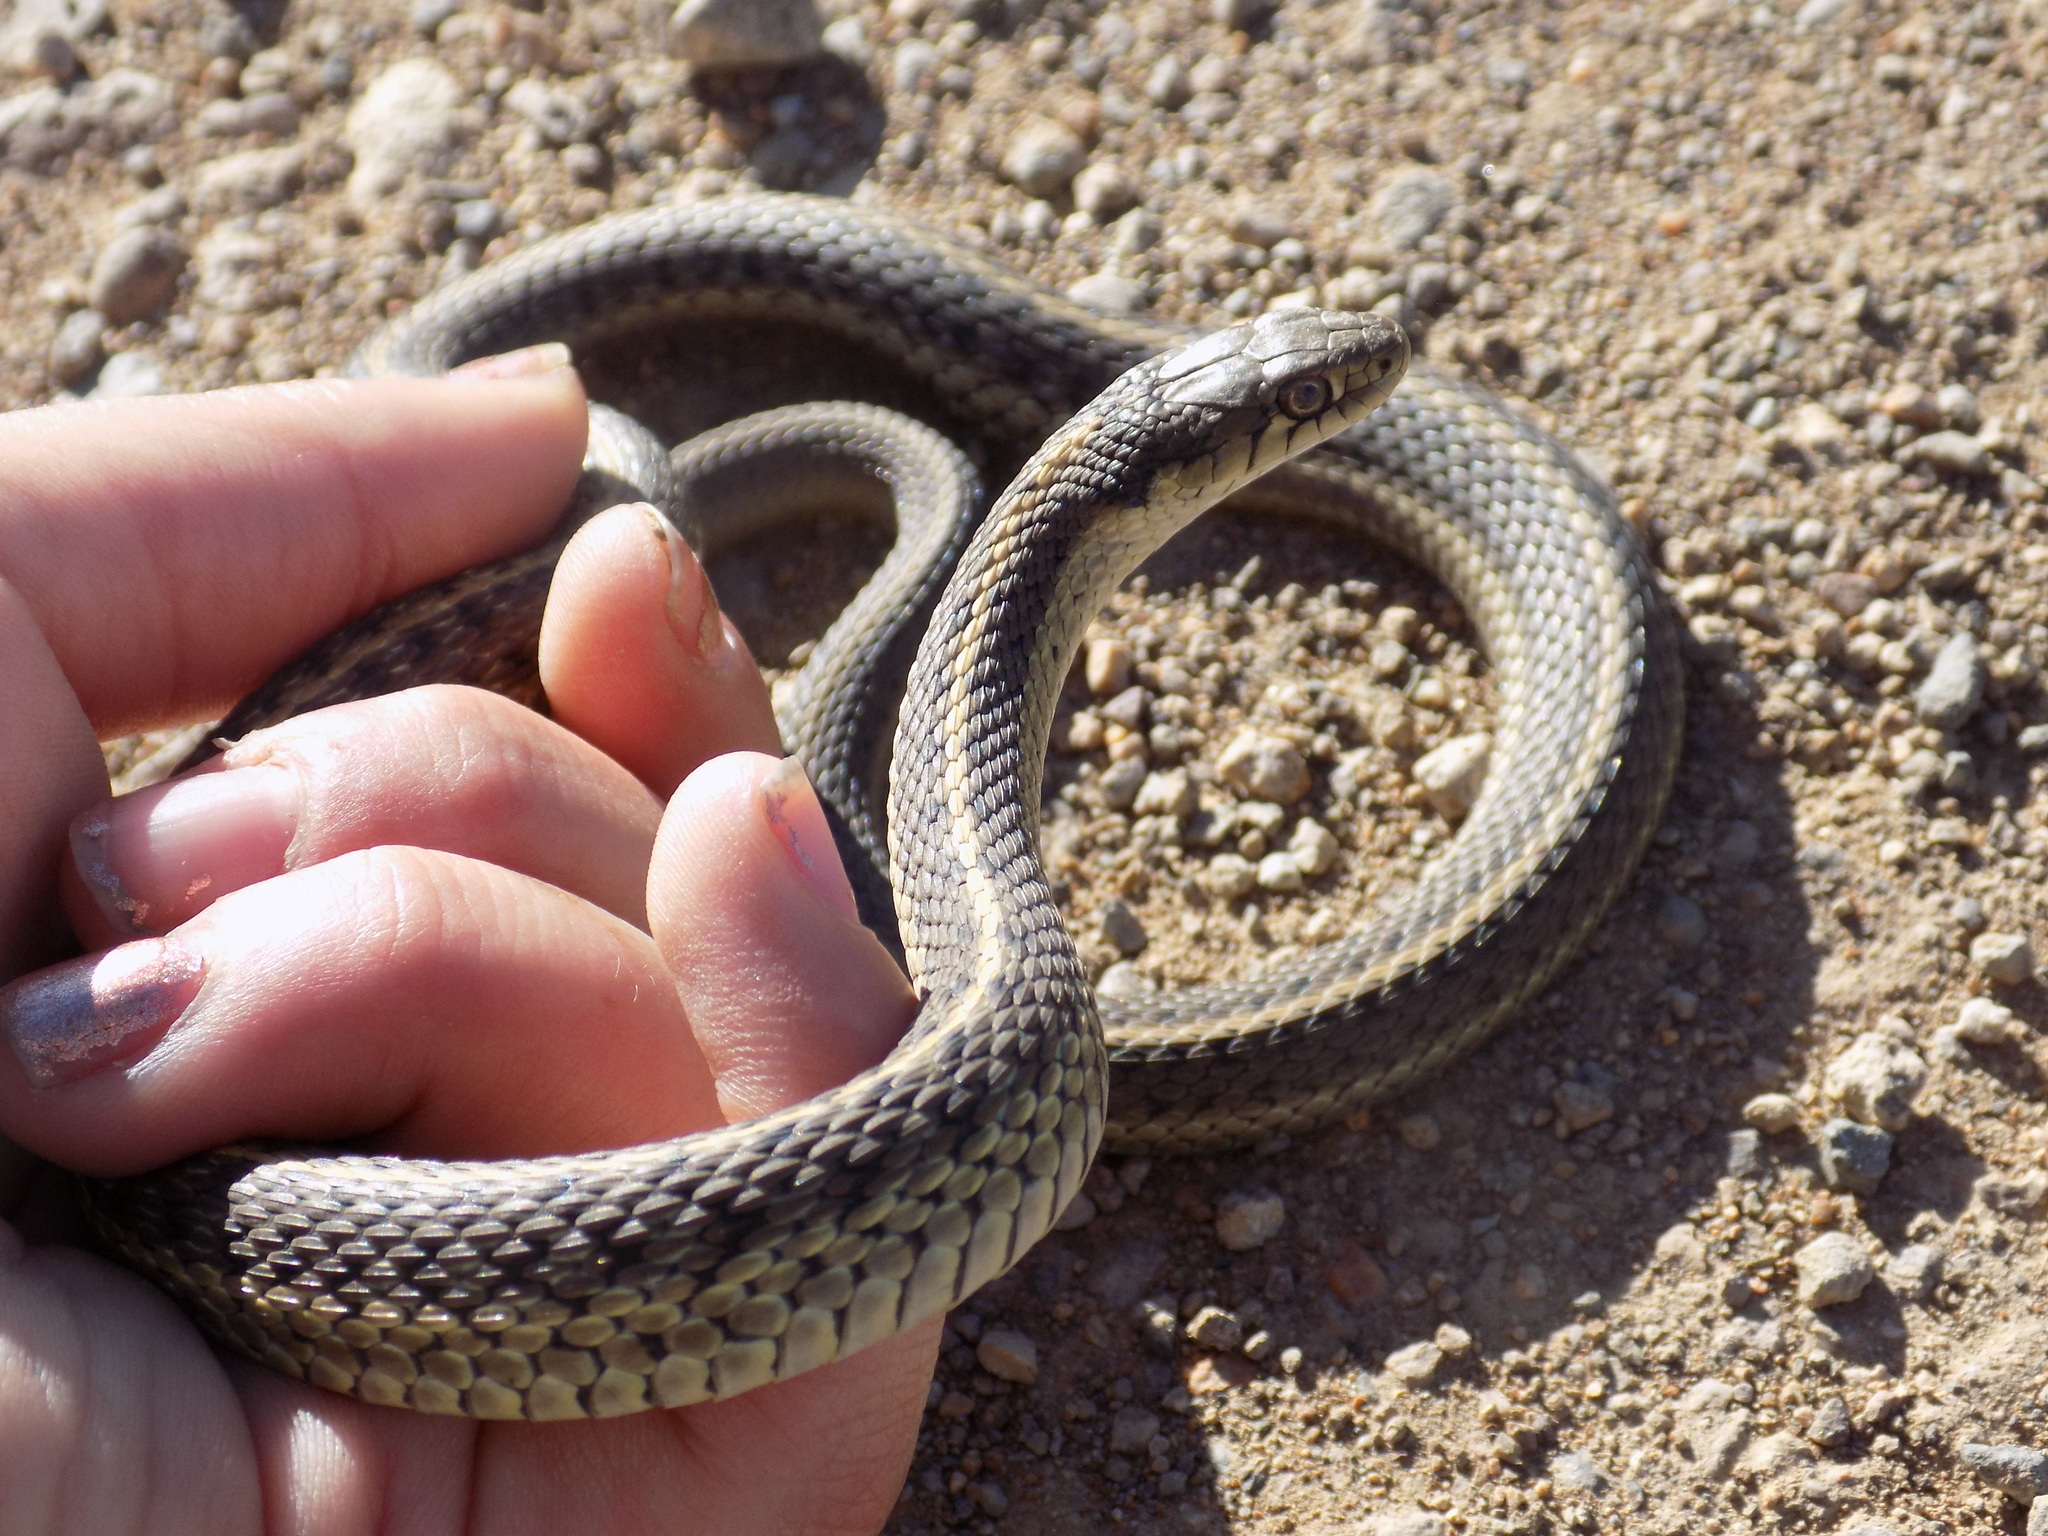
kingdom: Animalia
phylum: Chordata
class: Squamata
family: Colubridae
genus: Thamnophis
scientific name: Thamnophis elegans
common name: Western terrestrial garter snake
